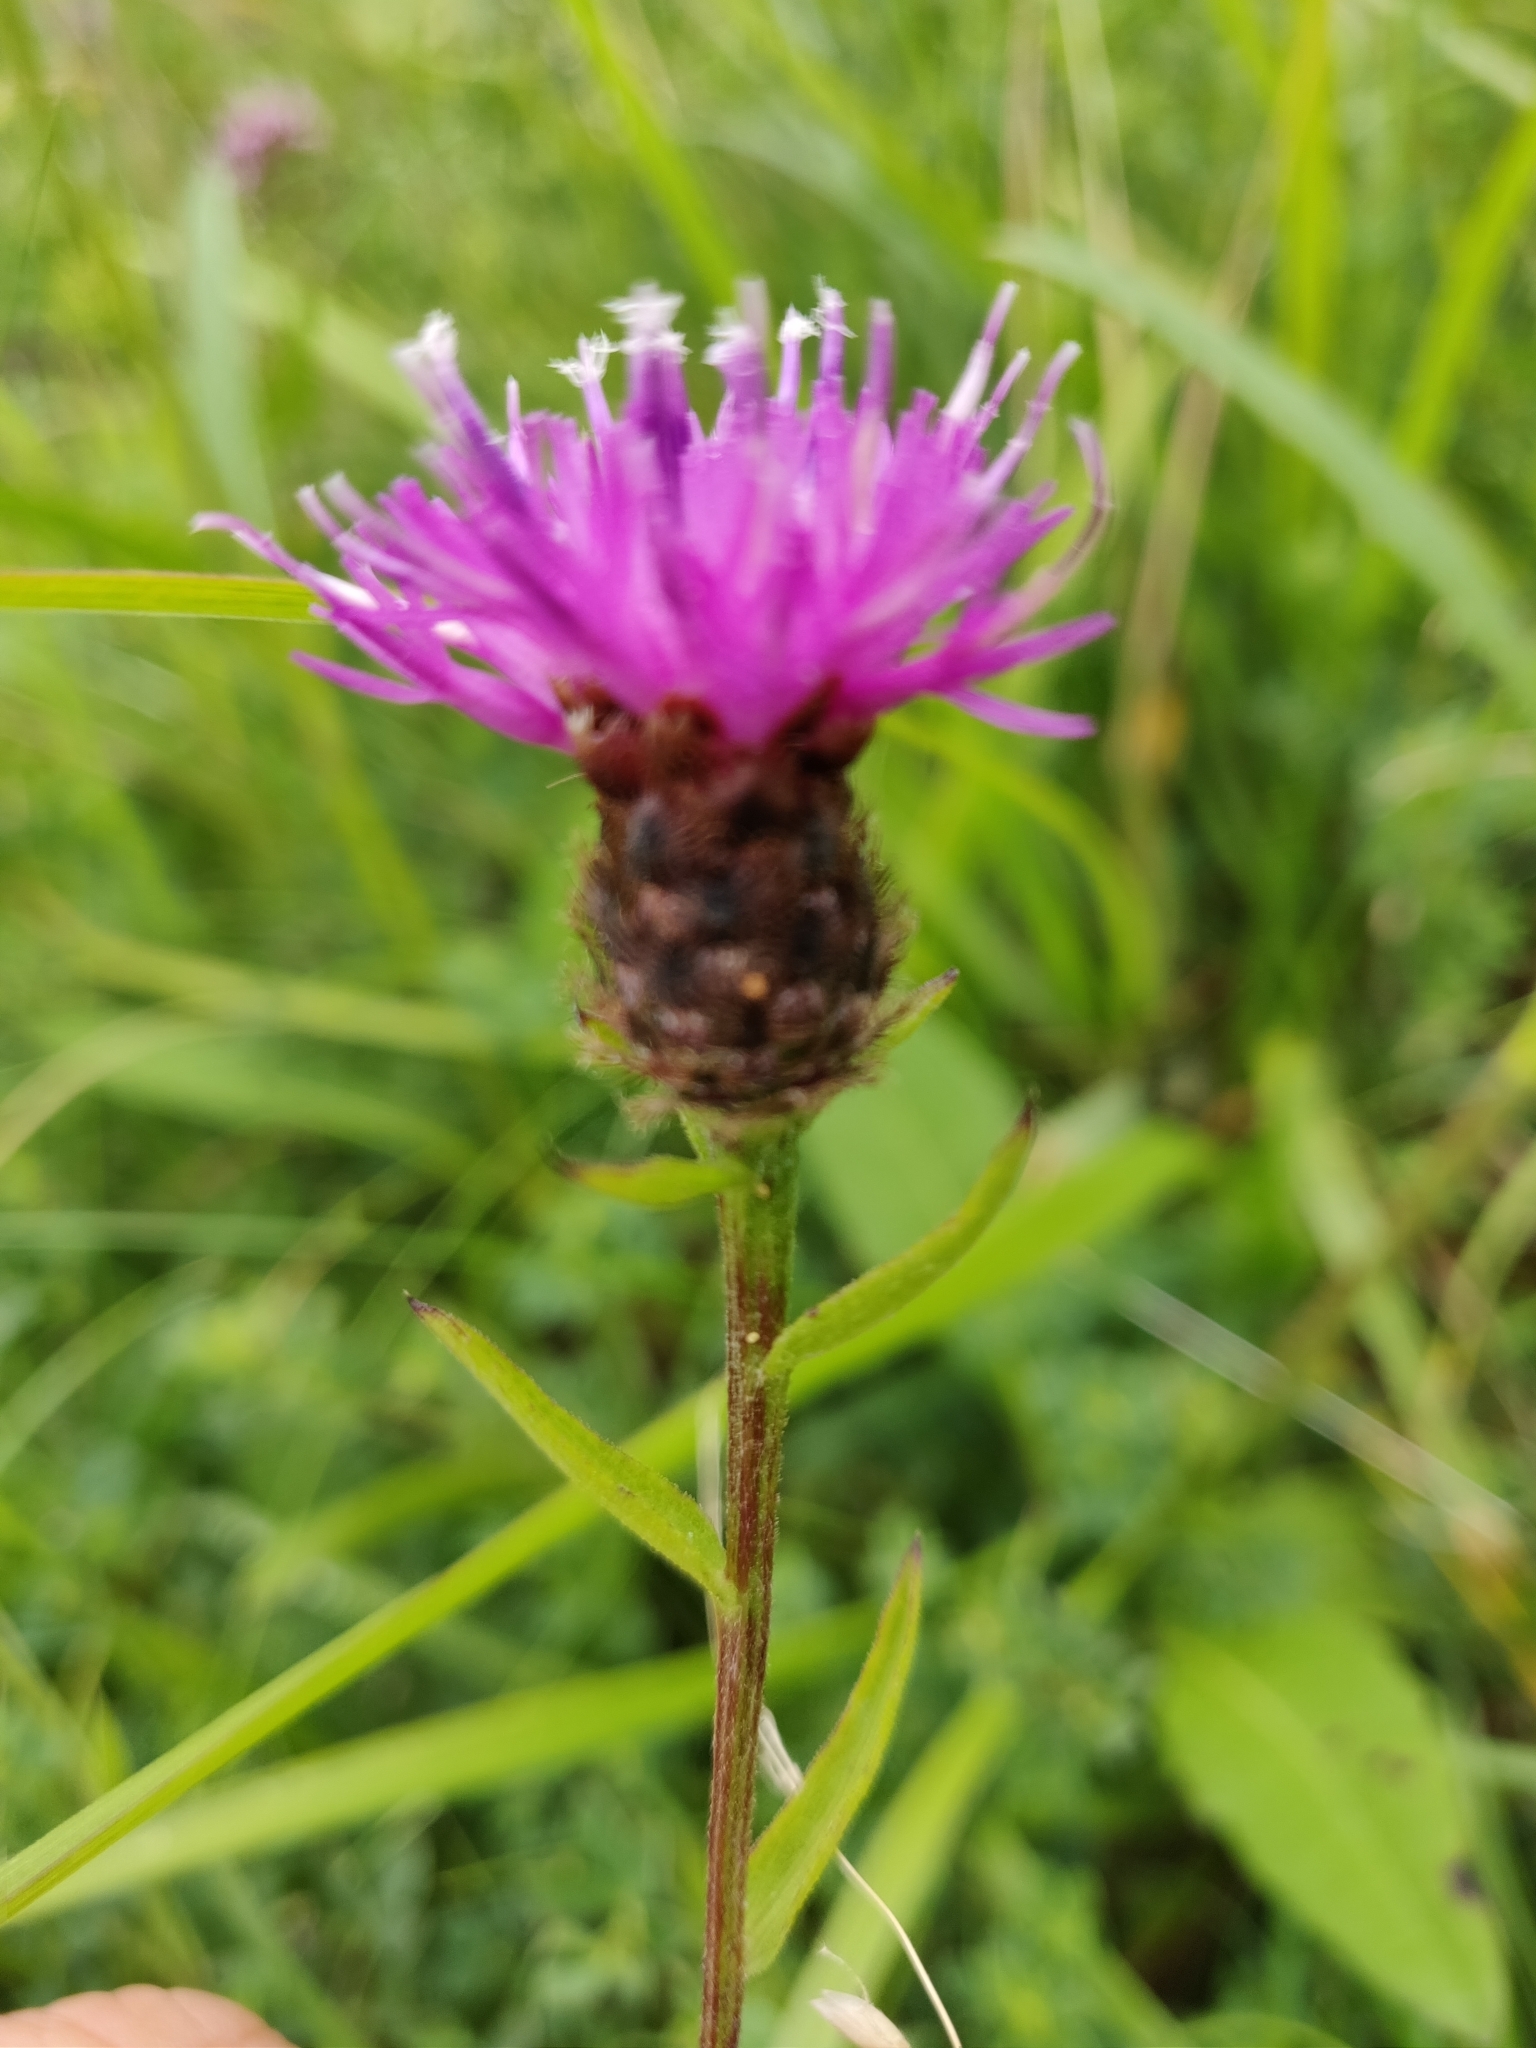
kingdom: Plantae
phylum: Tracheophyta
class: Magnoliopsida
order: Asterales
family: Asteraceae
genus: Centaurea
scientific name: Centaurea nigra
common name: Lesser knapweed
